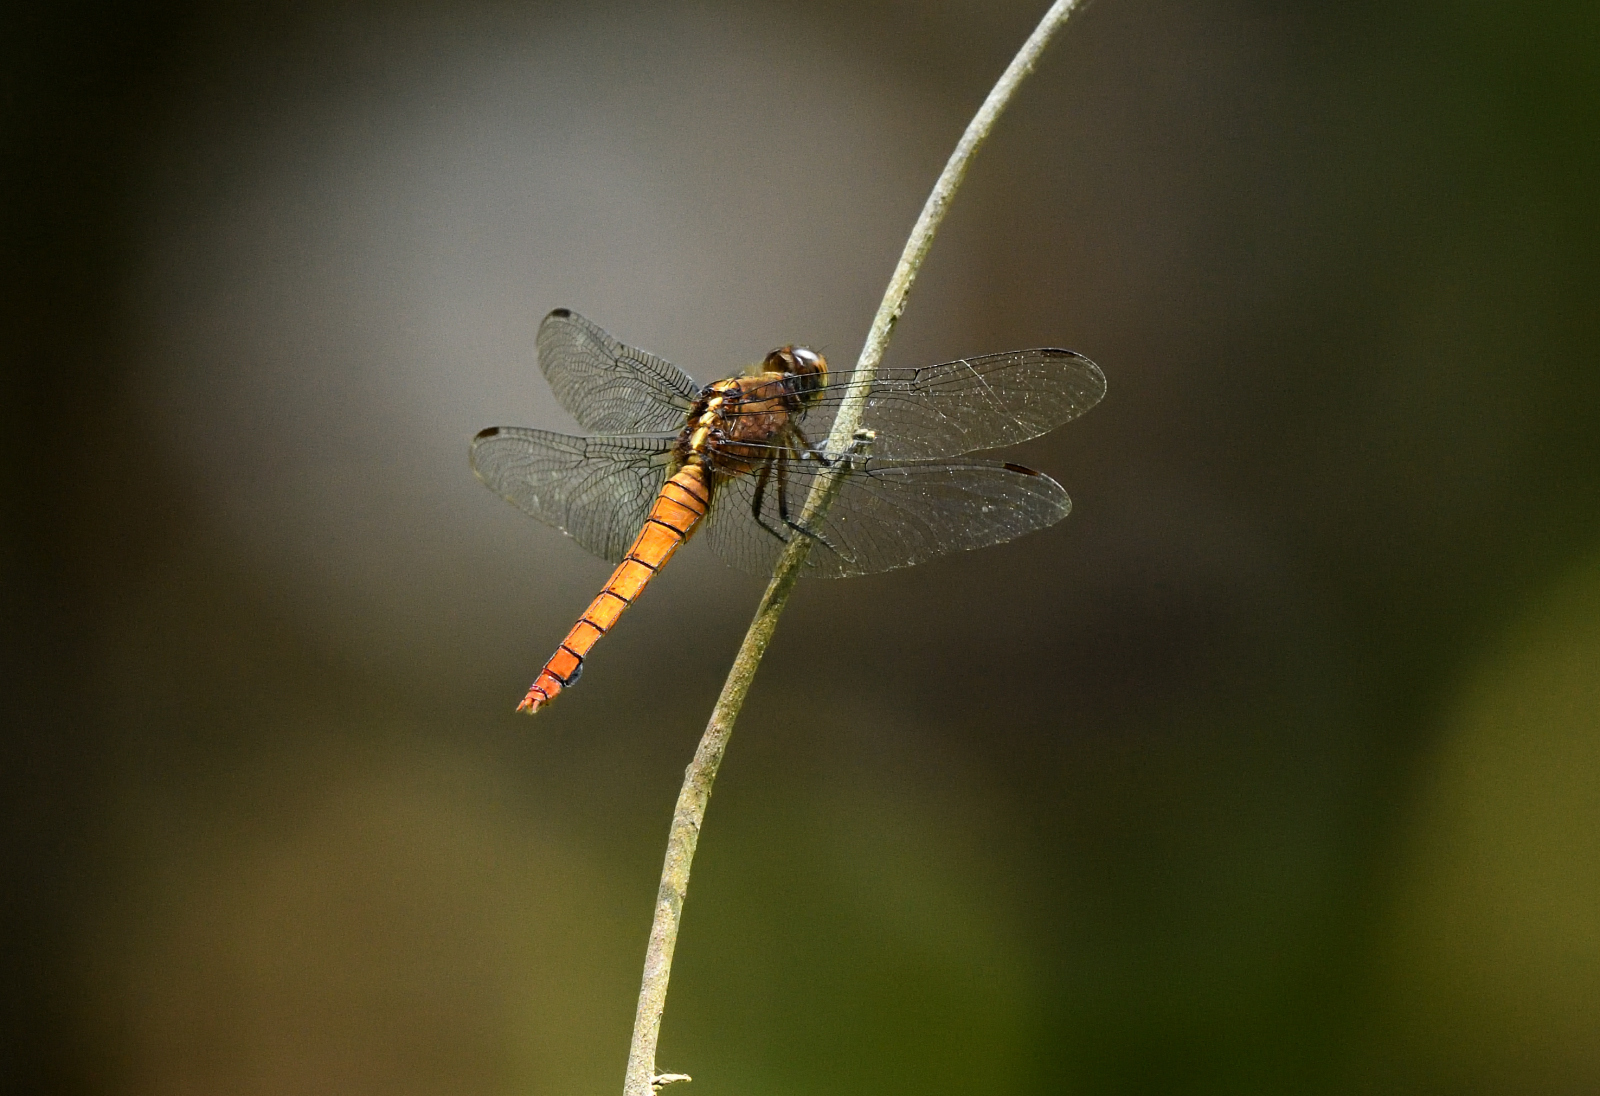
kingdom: Animalia
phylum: Arthropoda
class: Insecta
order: Odonata
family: Libellulidae
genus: Orthetrum
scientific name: Orthetrum pruinosum
